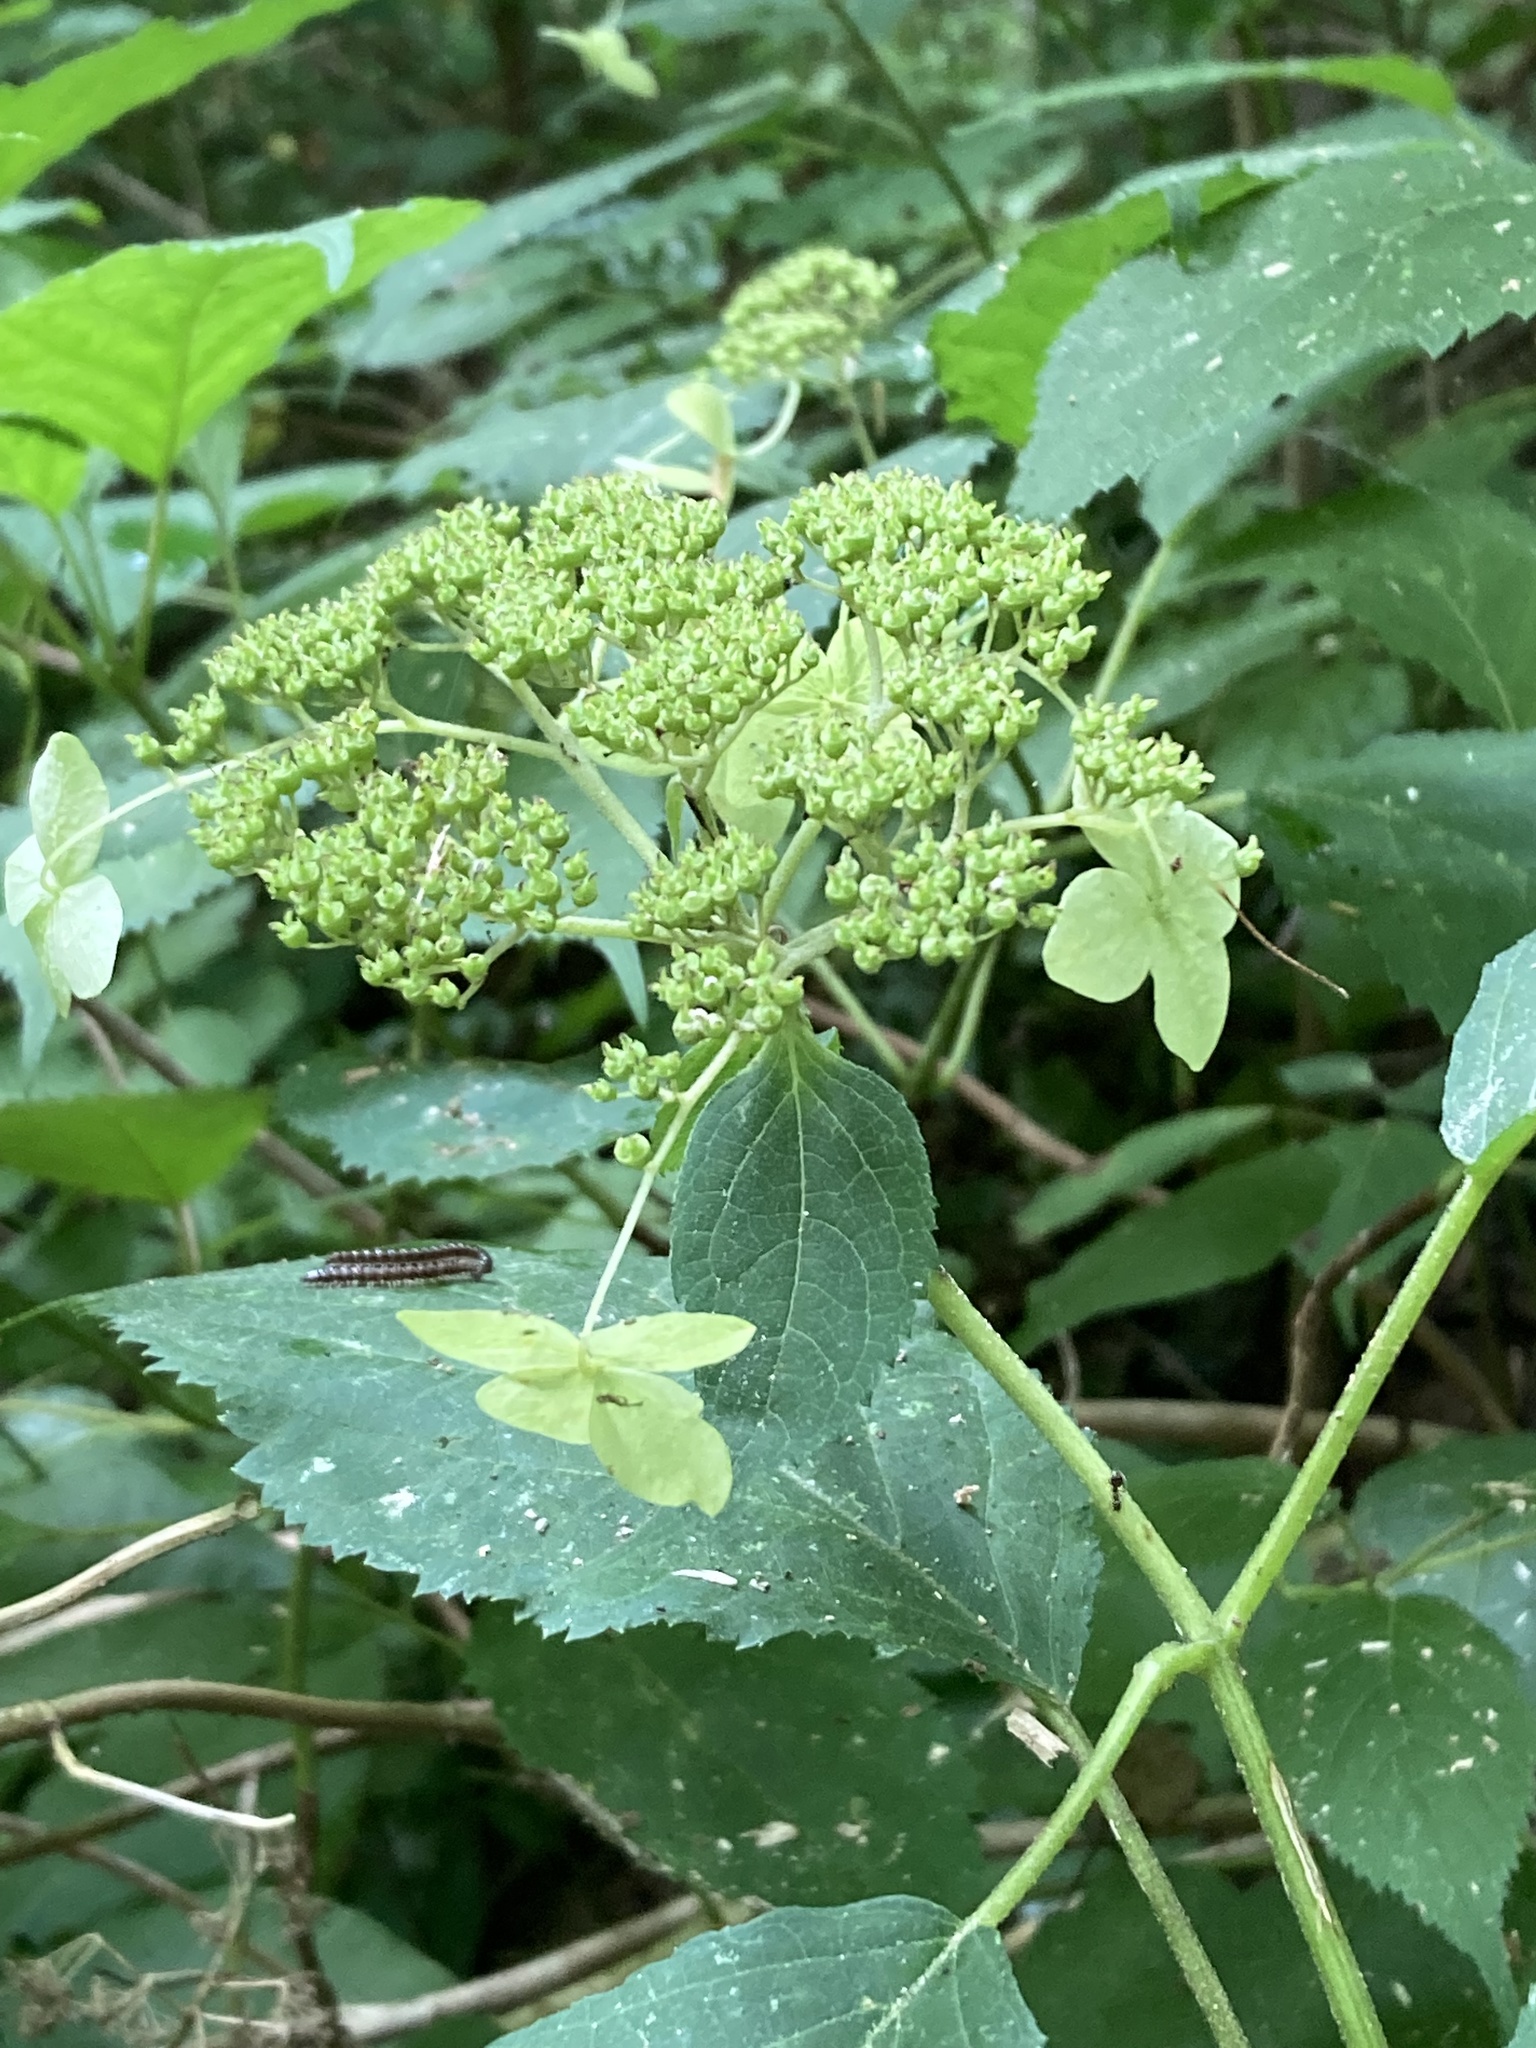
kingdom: Plantae
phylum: Tracheophyta
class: Magnoliopsida
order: Cornales
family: Hydrangeaceae
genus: Hydrangea
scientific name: Hydrangea arborescens
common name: Sevenbark
